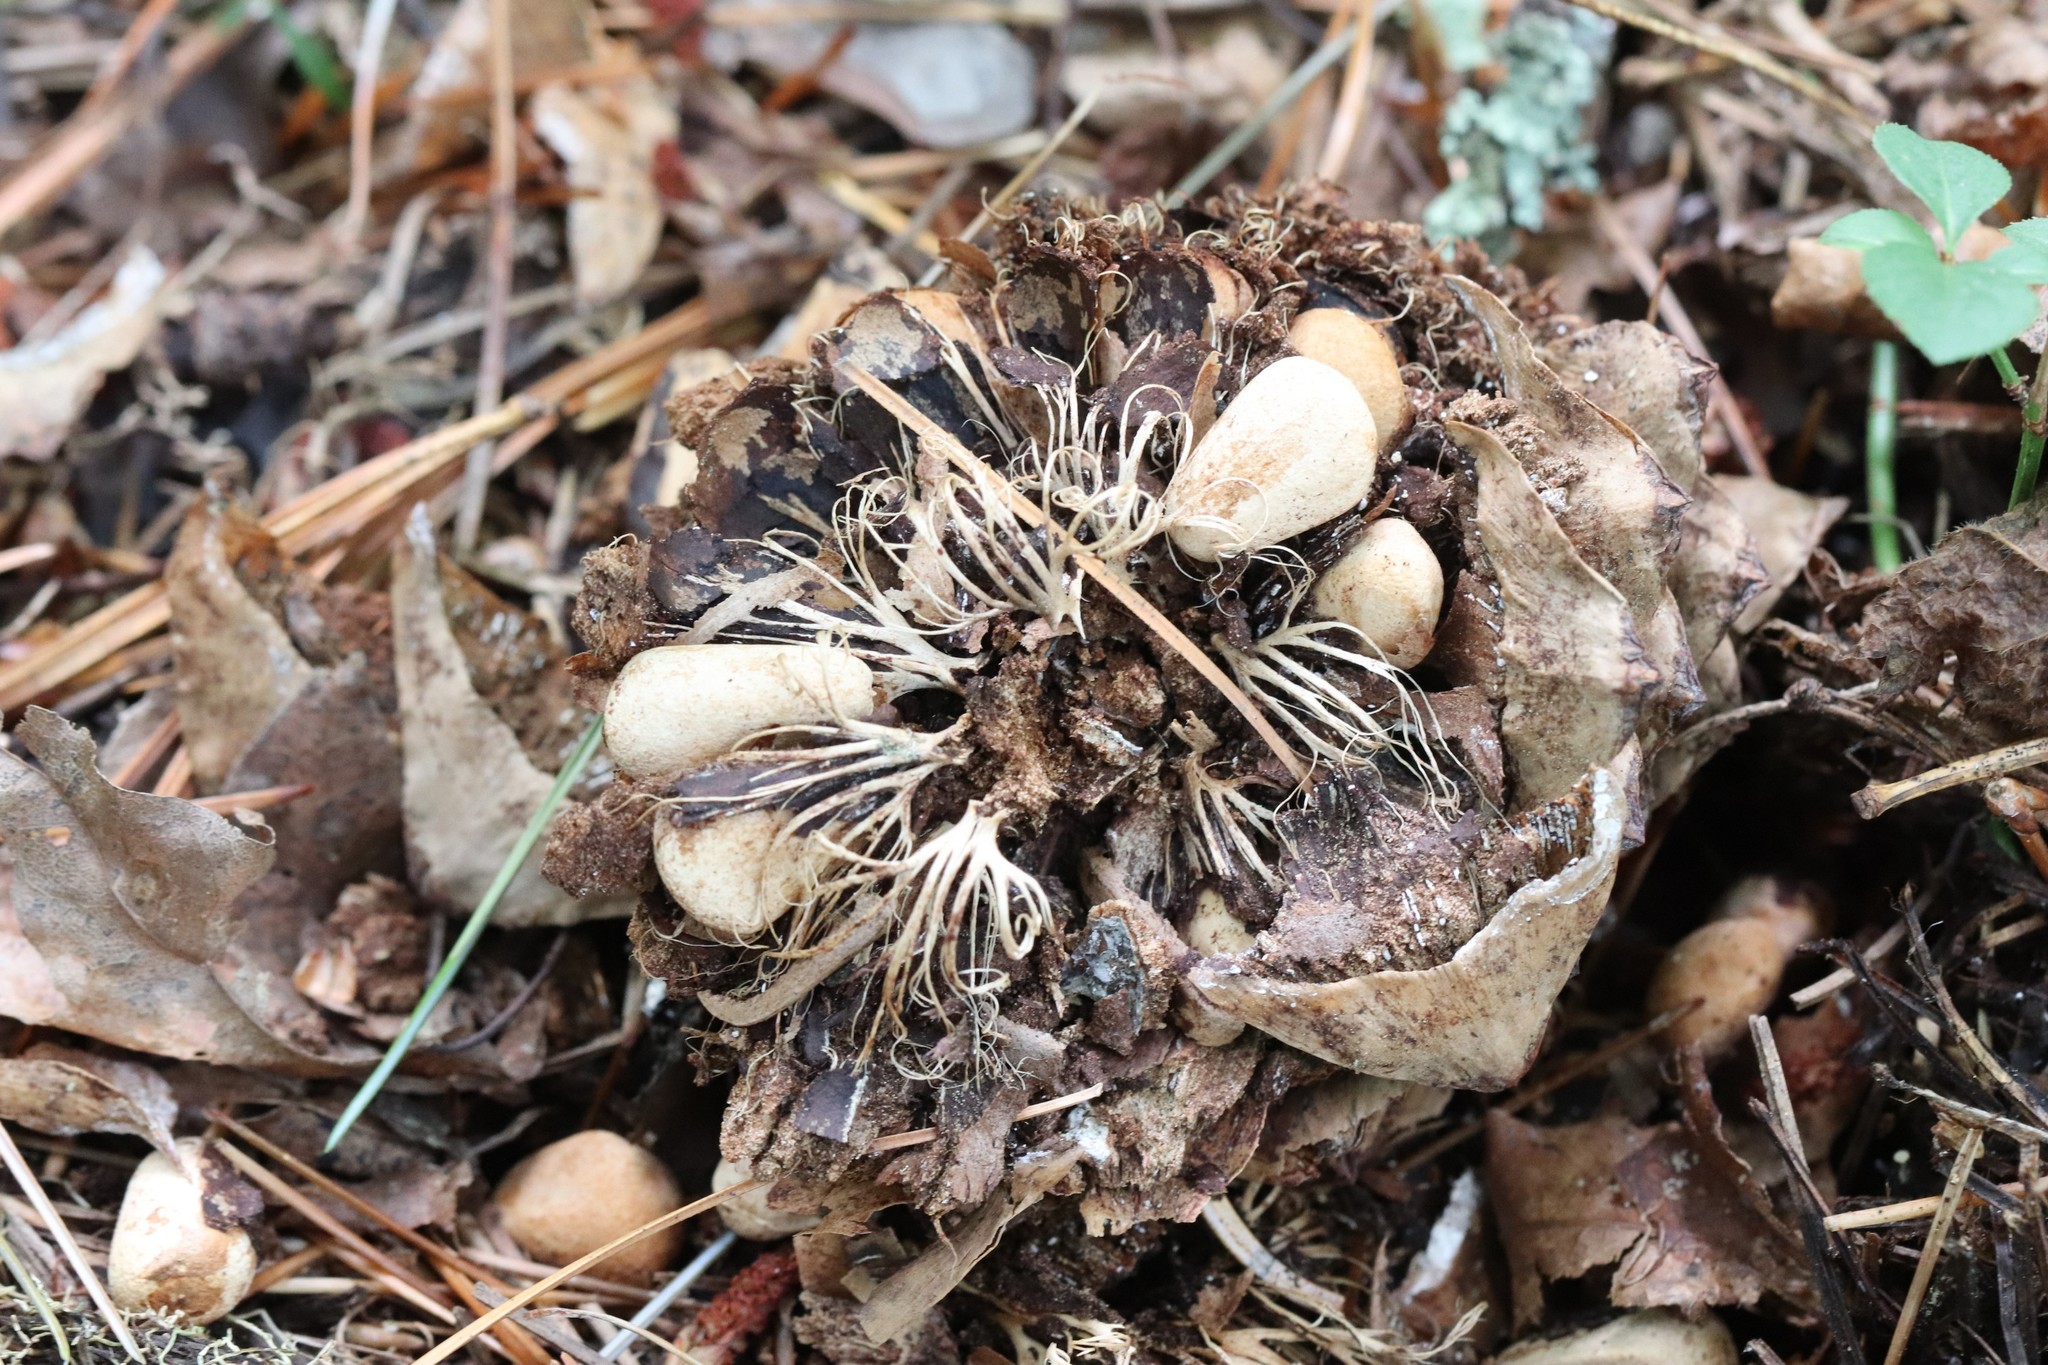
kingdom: Plantae
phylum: Tracheophyta
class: Pinopsida
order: Pinales
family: Pinaceae
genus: Pinus
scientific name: Pinus koraiensis
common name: Korean pine
